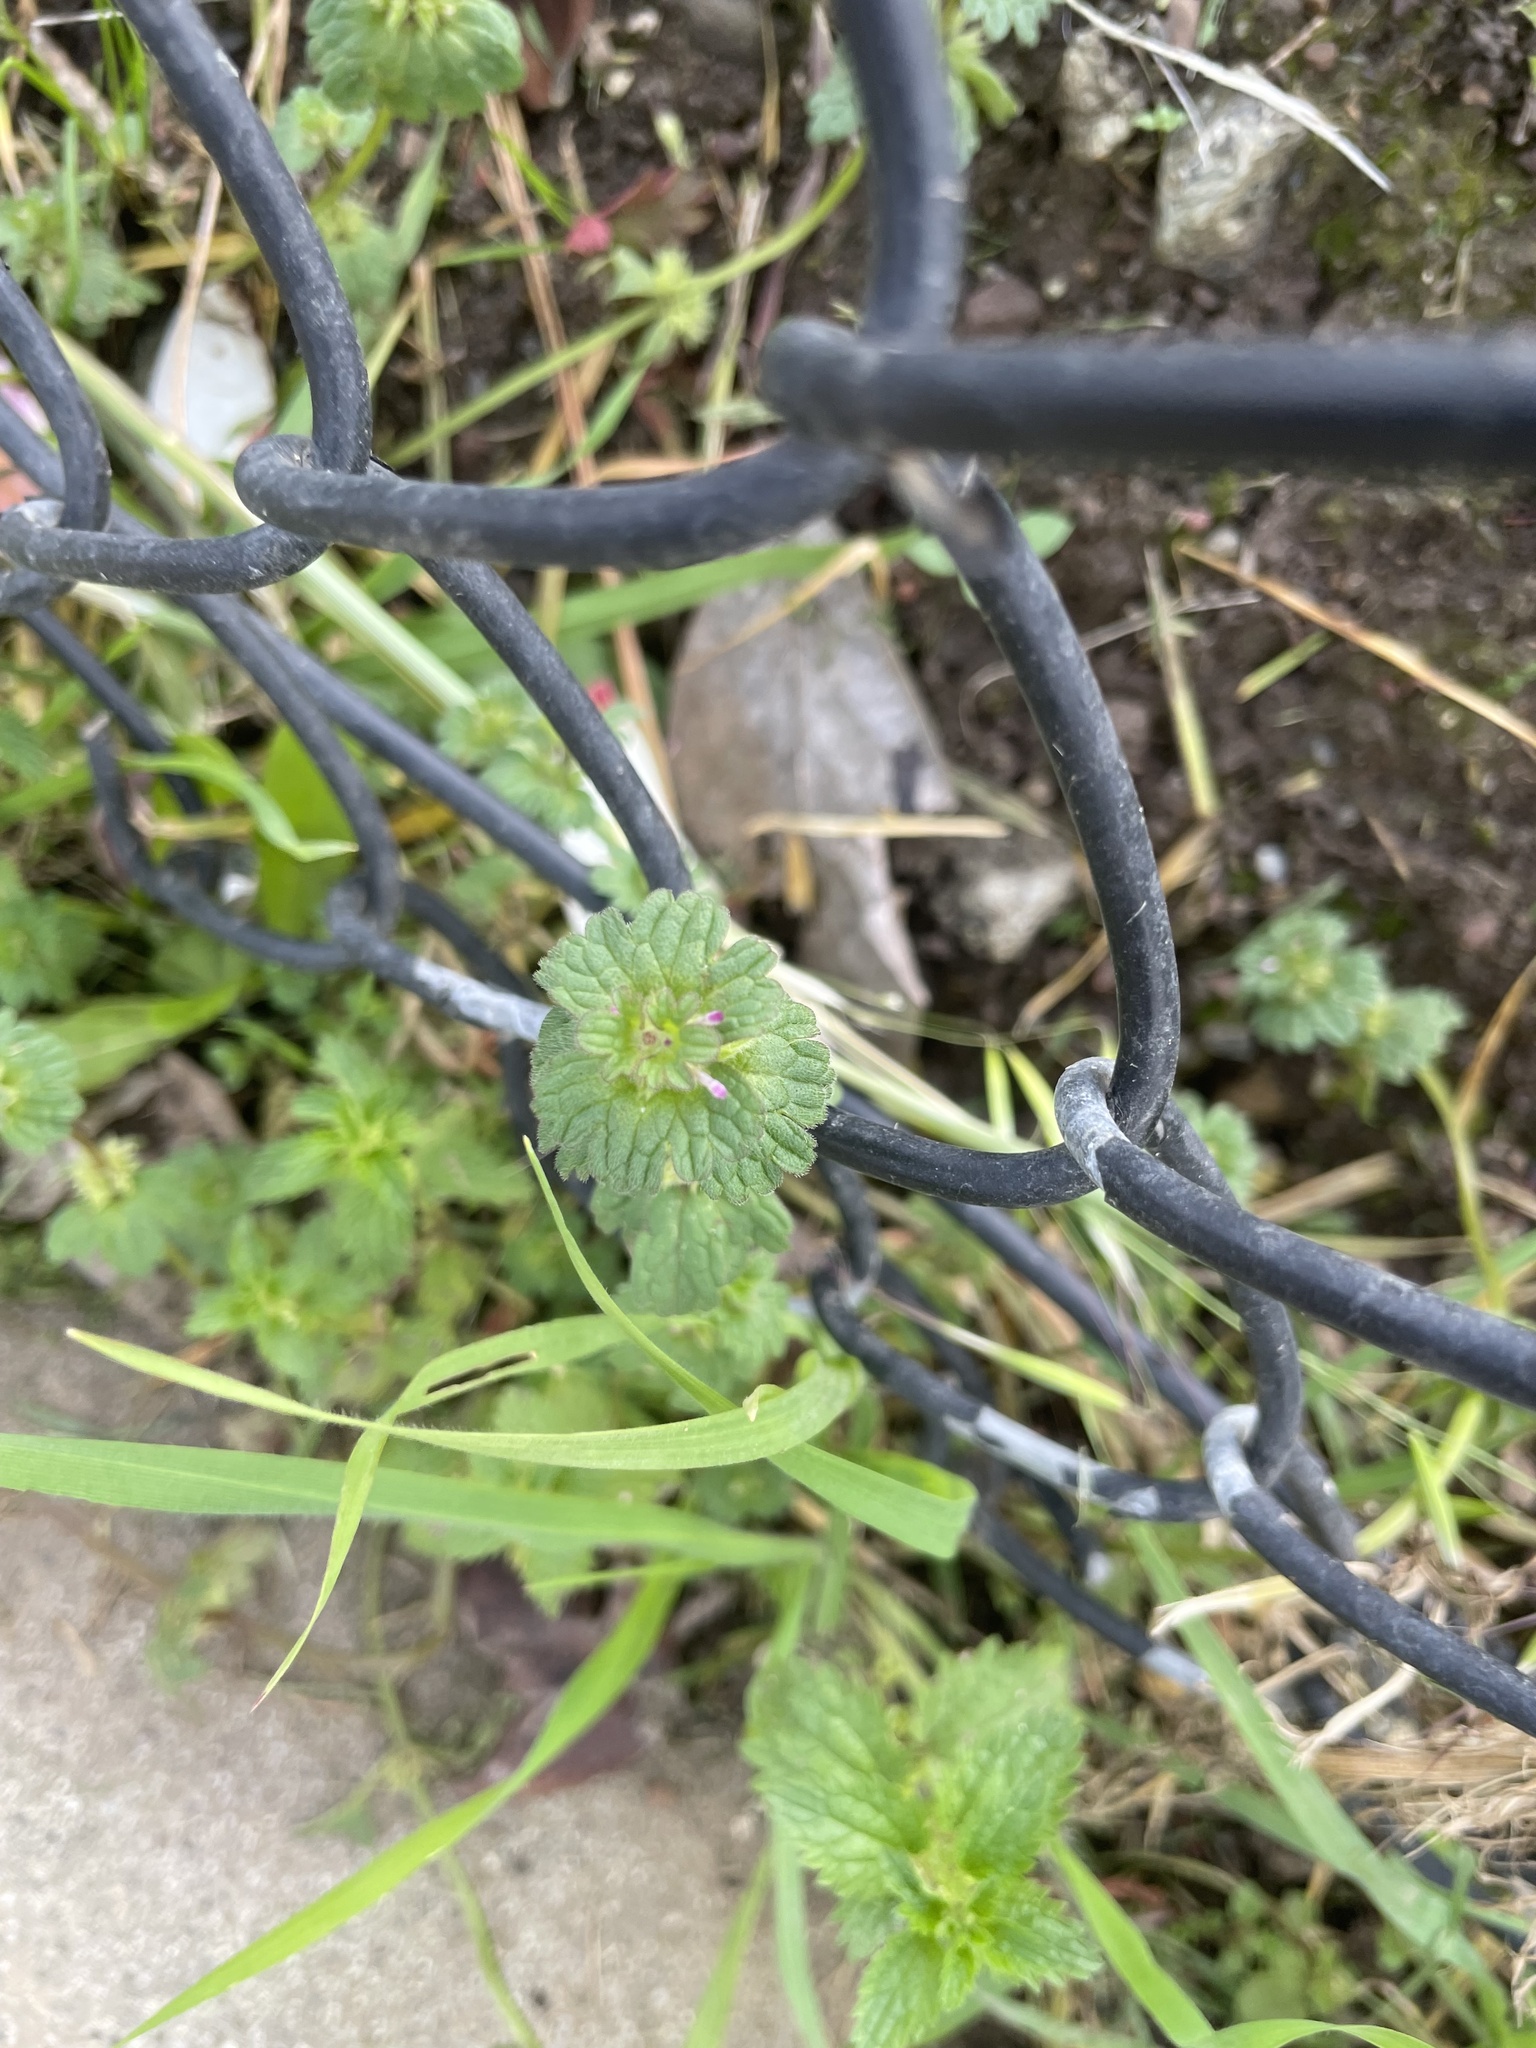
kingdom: Plantae
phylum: Tracheophyta
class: Magnoliopsida
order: Lamiales
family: Lamiaceae
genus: Lamium
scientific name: Lamium amplexicaule
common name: Henbit dead-nettle
